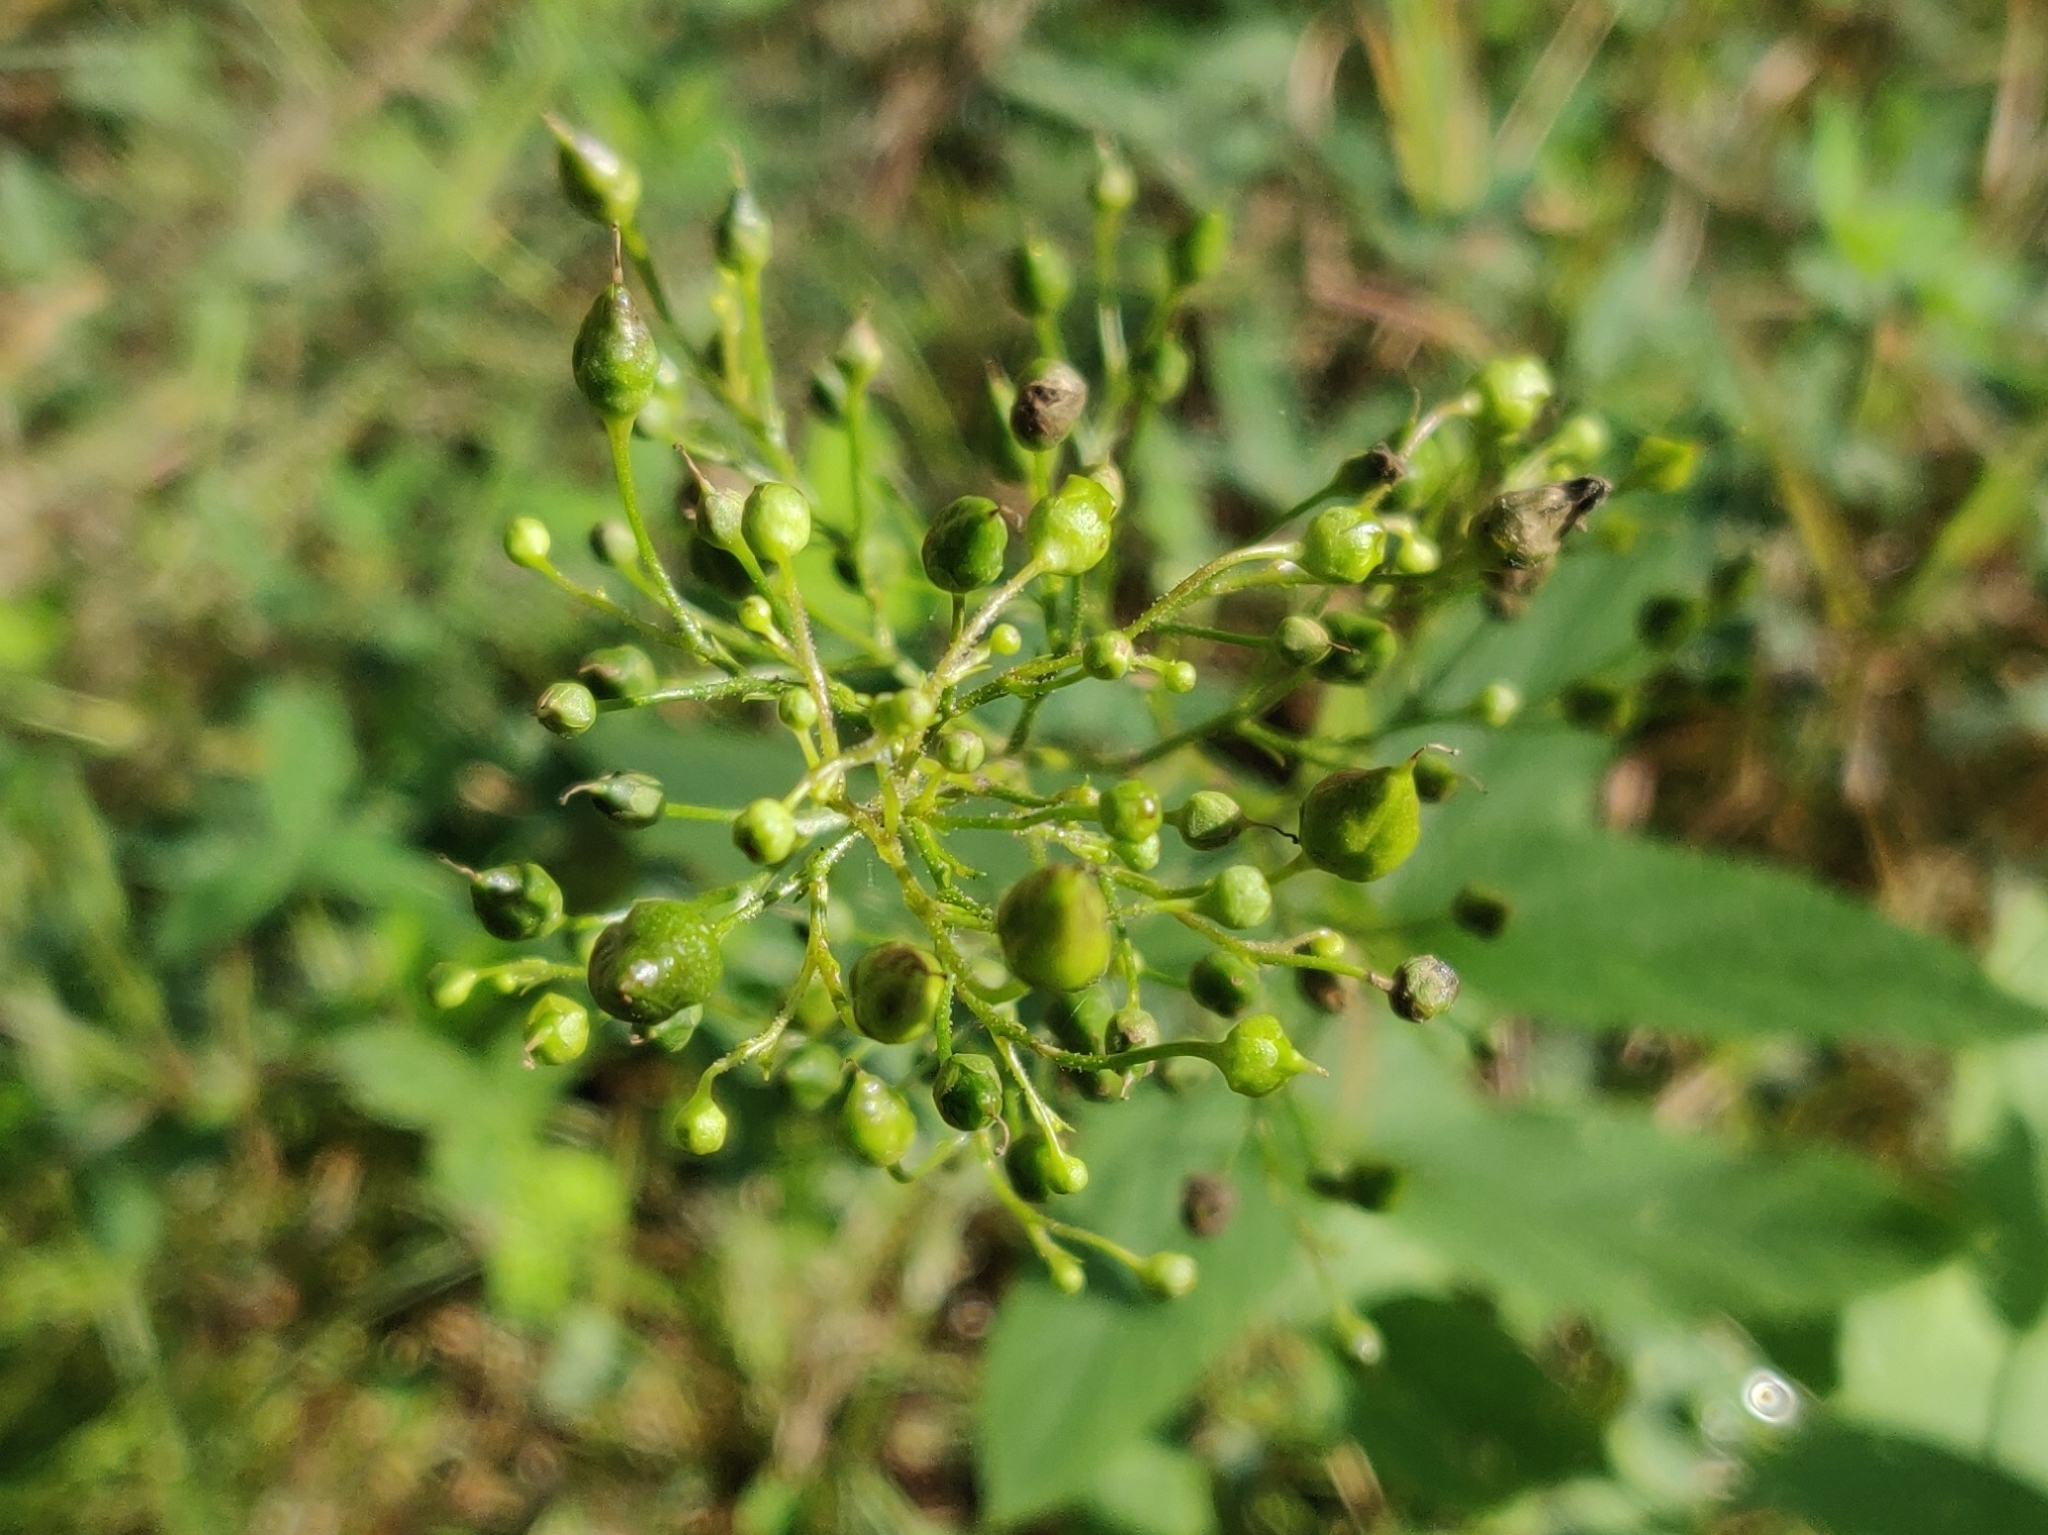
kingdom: Plantae
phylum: Tracheophyta
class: Magnoliopsida
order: Lamiales
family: Scrophulariaceae
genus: Scrophularia
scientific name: Scrophularia nodosa
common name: Common figwort
